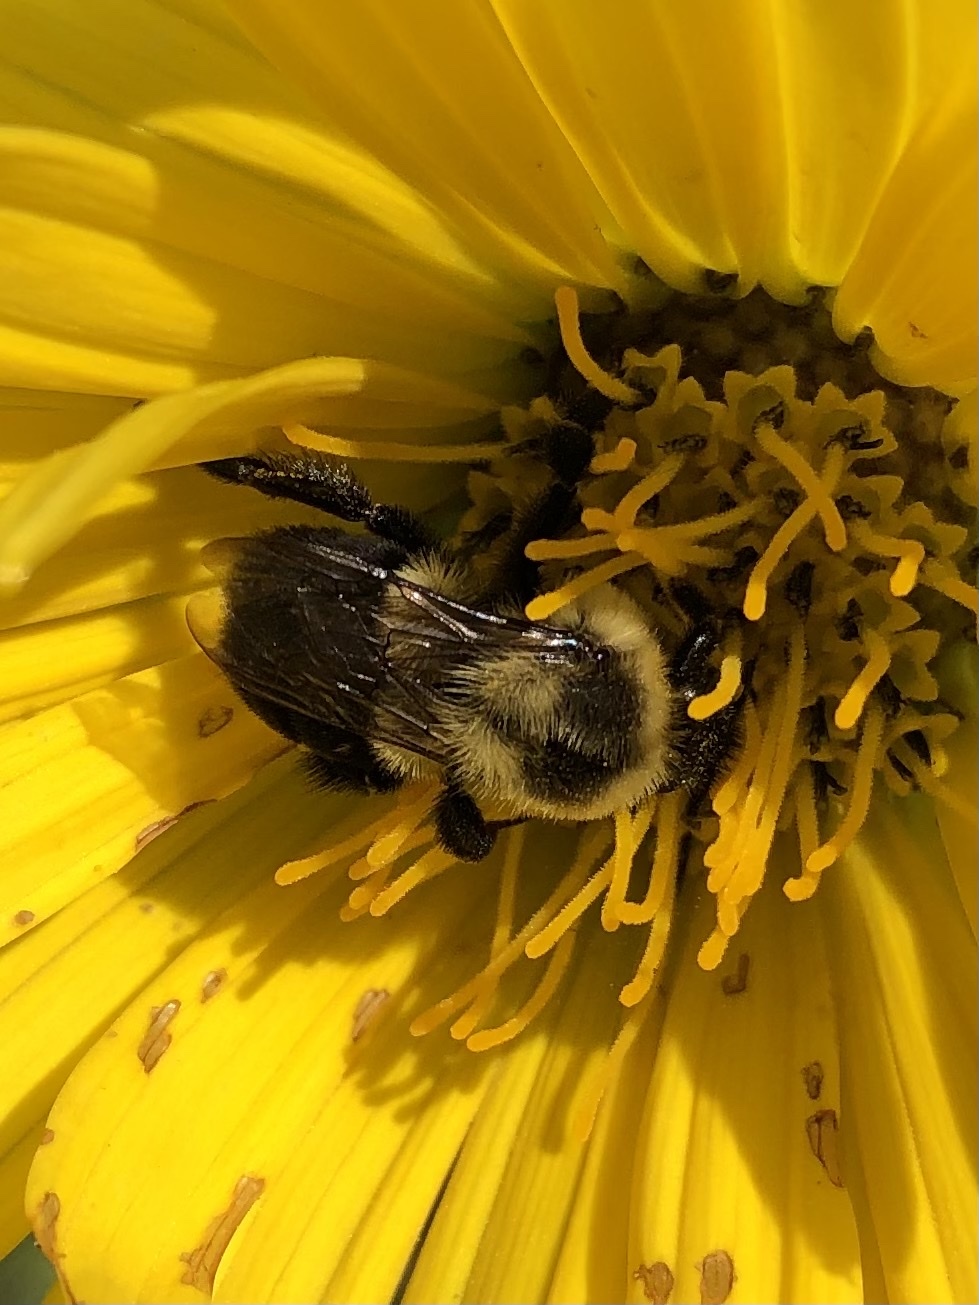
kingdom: Animalia
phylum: Arthropoda
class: Insecta
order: Hymenoptera
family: Apidae
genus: Bombus
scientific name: Bombus impatiens
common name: Common eastern bumble bee
